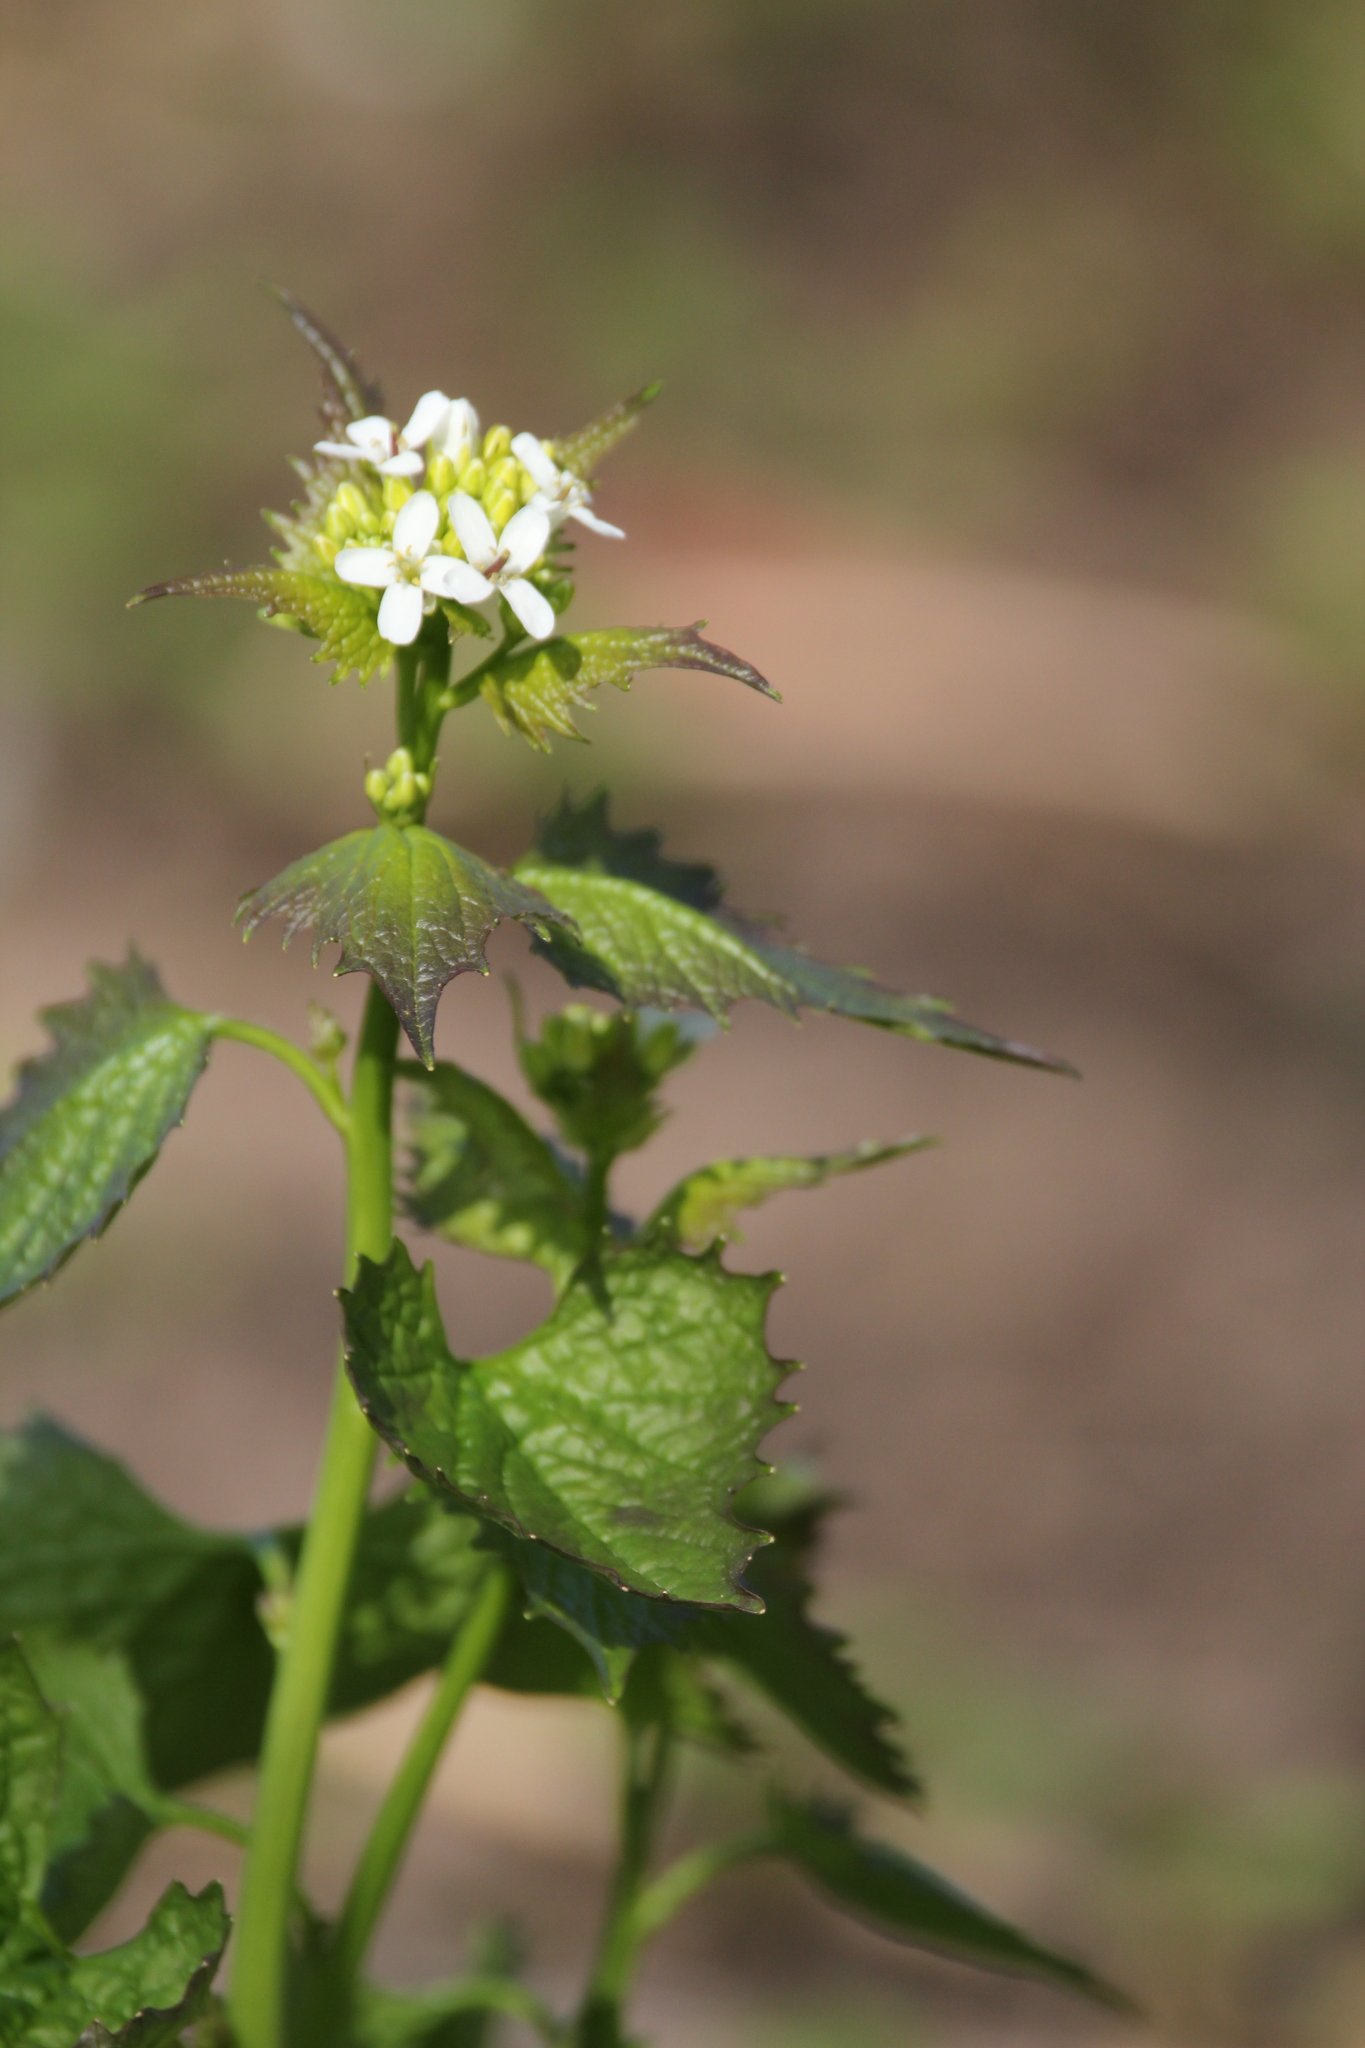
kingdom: Plantae
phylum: Tracheophyta
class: Magnoliopsida
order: Brassicales
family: Brassicaceae
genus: Alliaria
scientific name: Alliaria petiolata
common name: Garlic mustard
